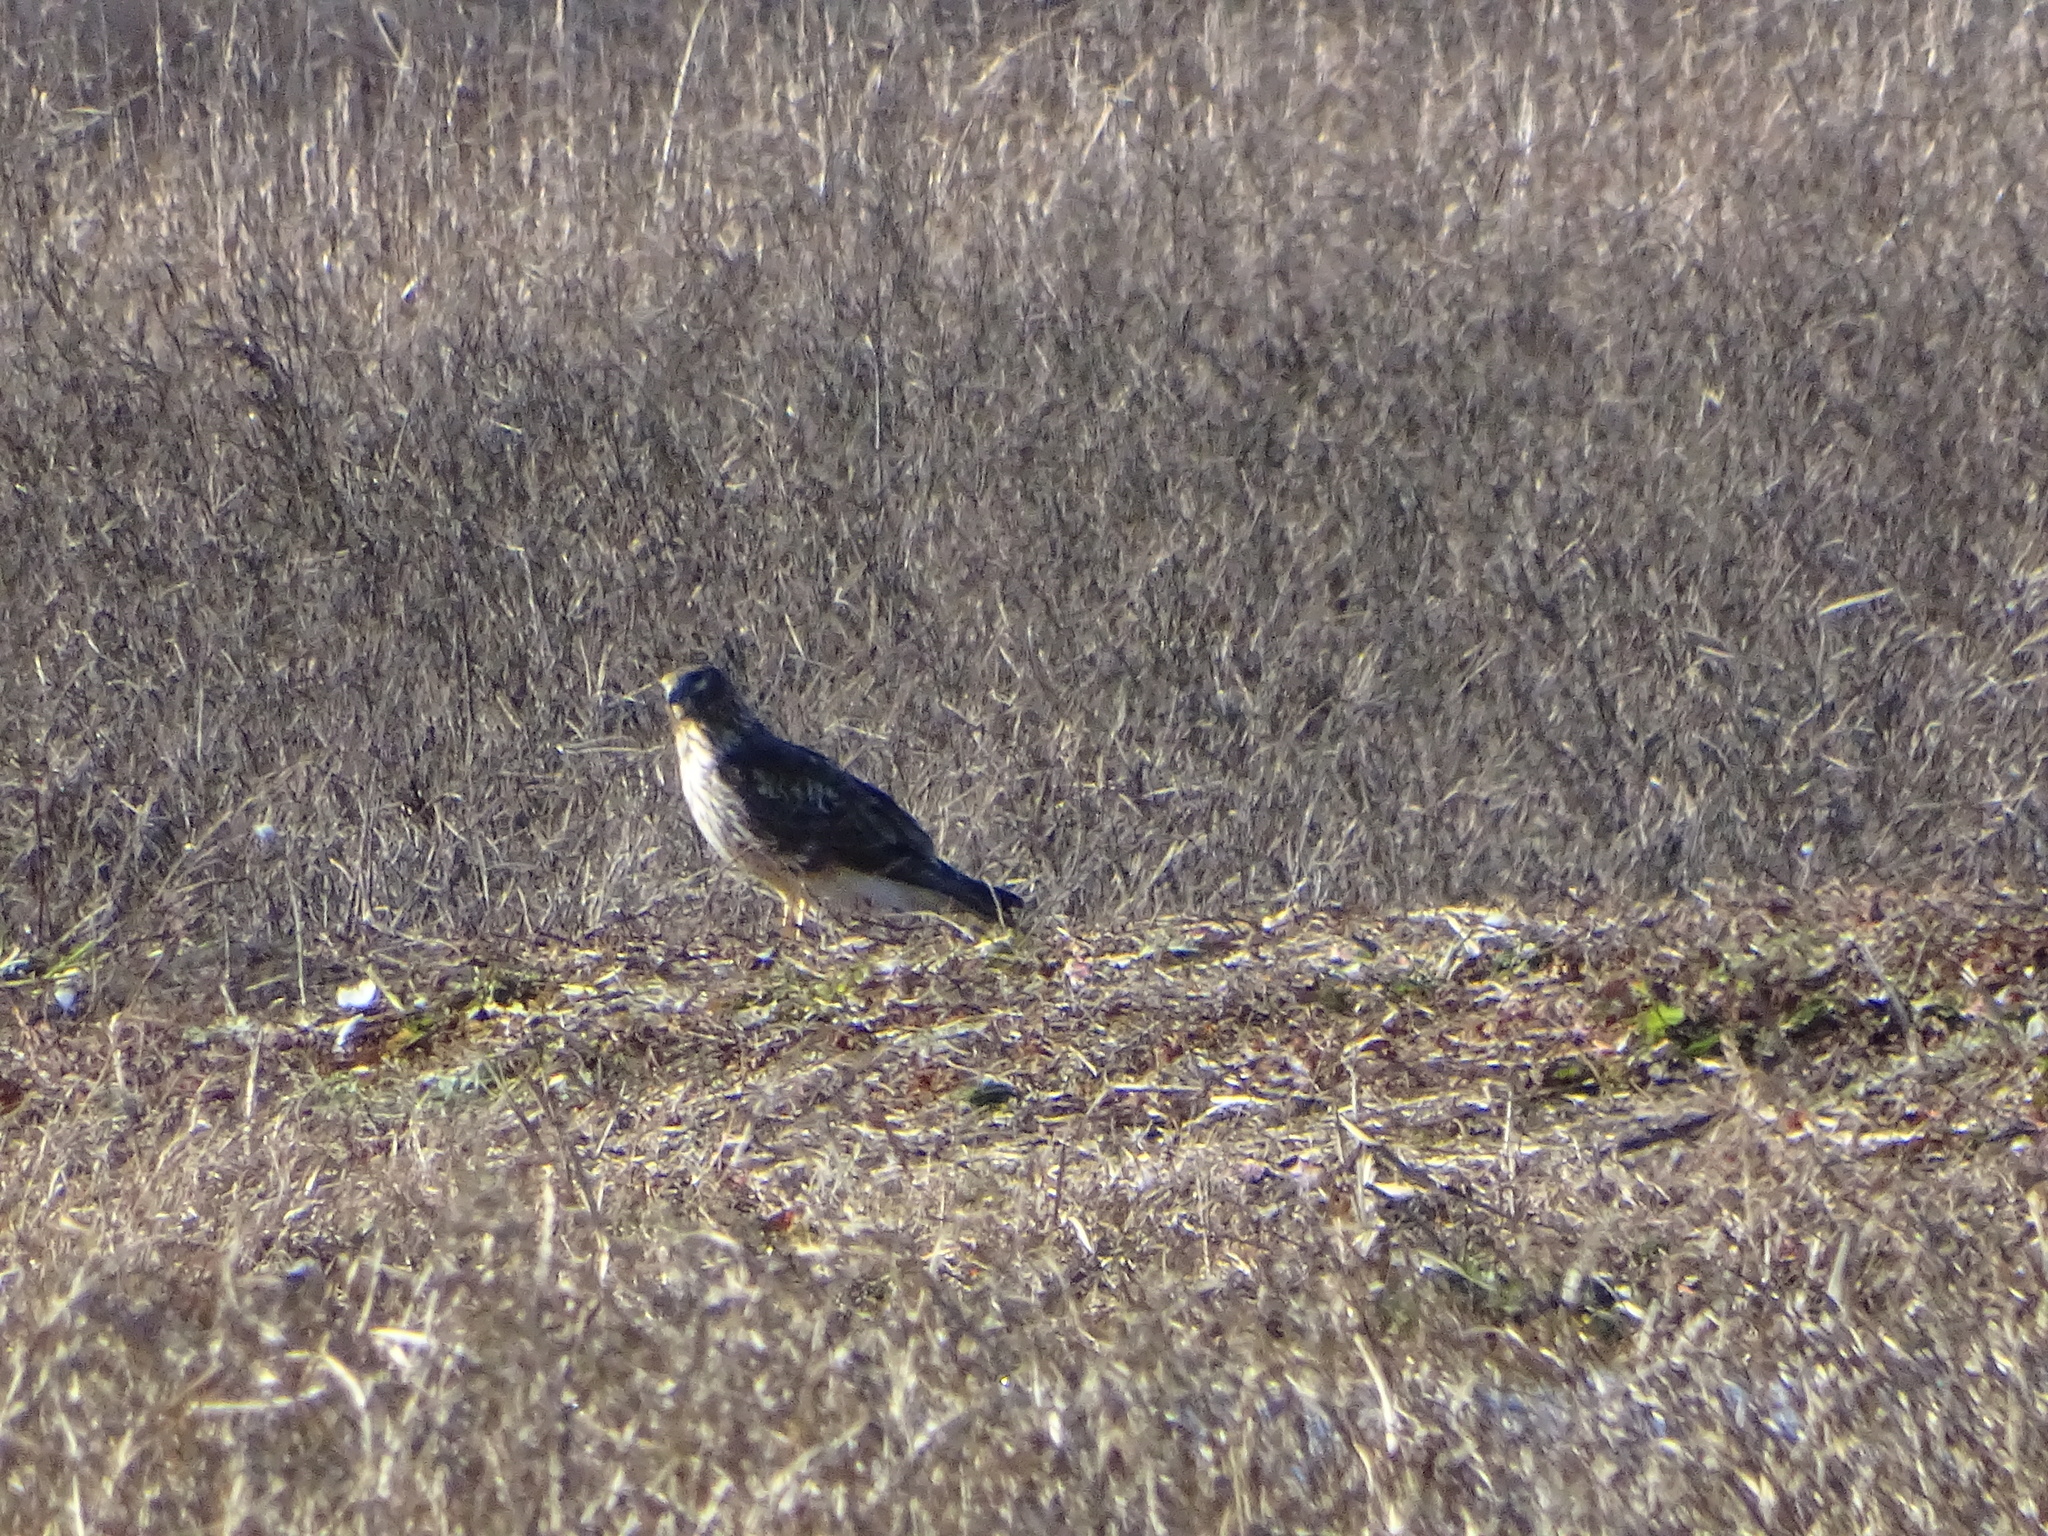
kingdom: Animalia
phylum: Chordata
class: Aves
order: Accipitriformes
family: Accipitridae
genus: Circus
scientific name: Circus cyaneus
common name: Hen harrier
